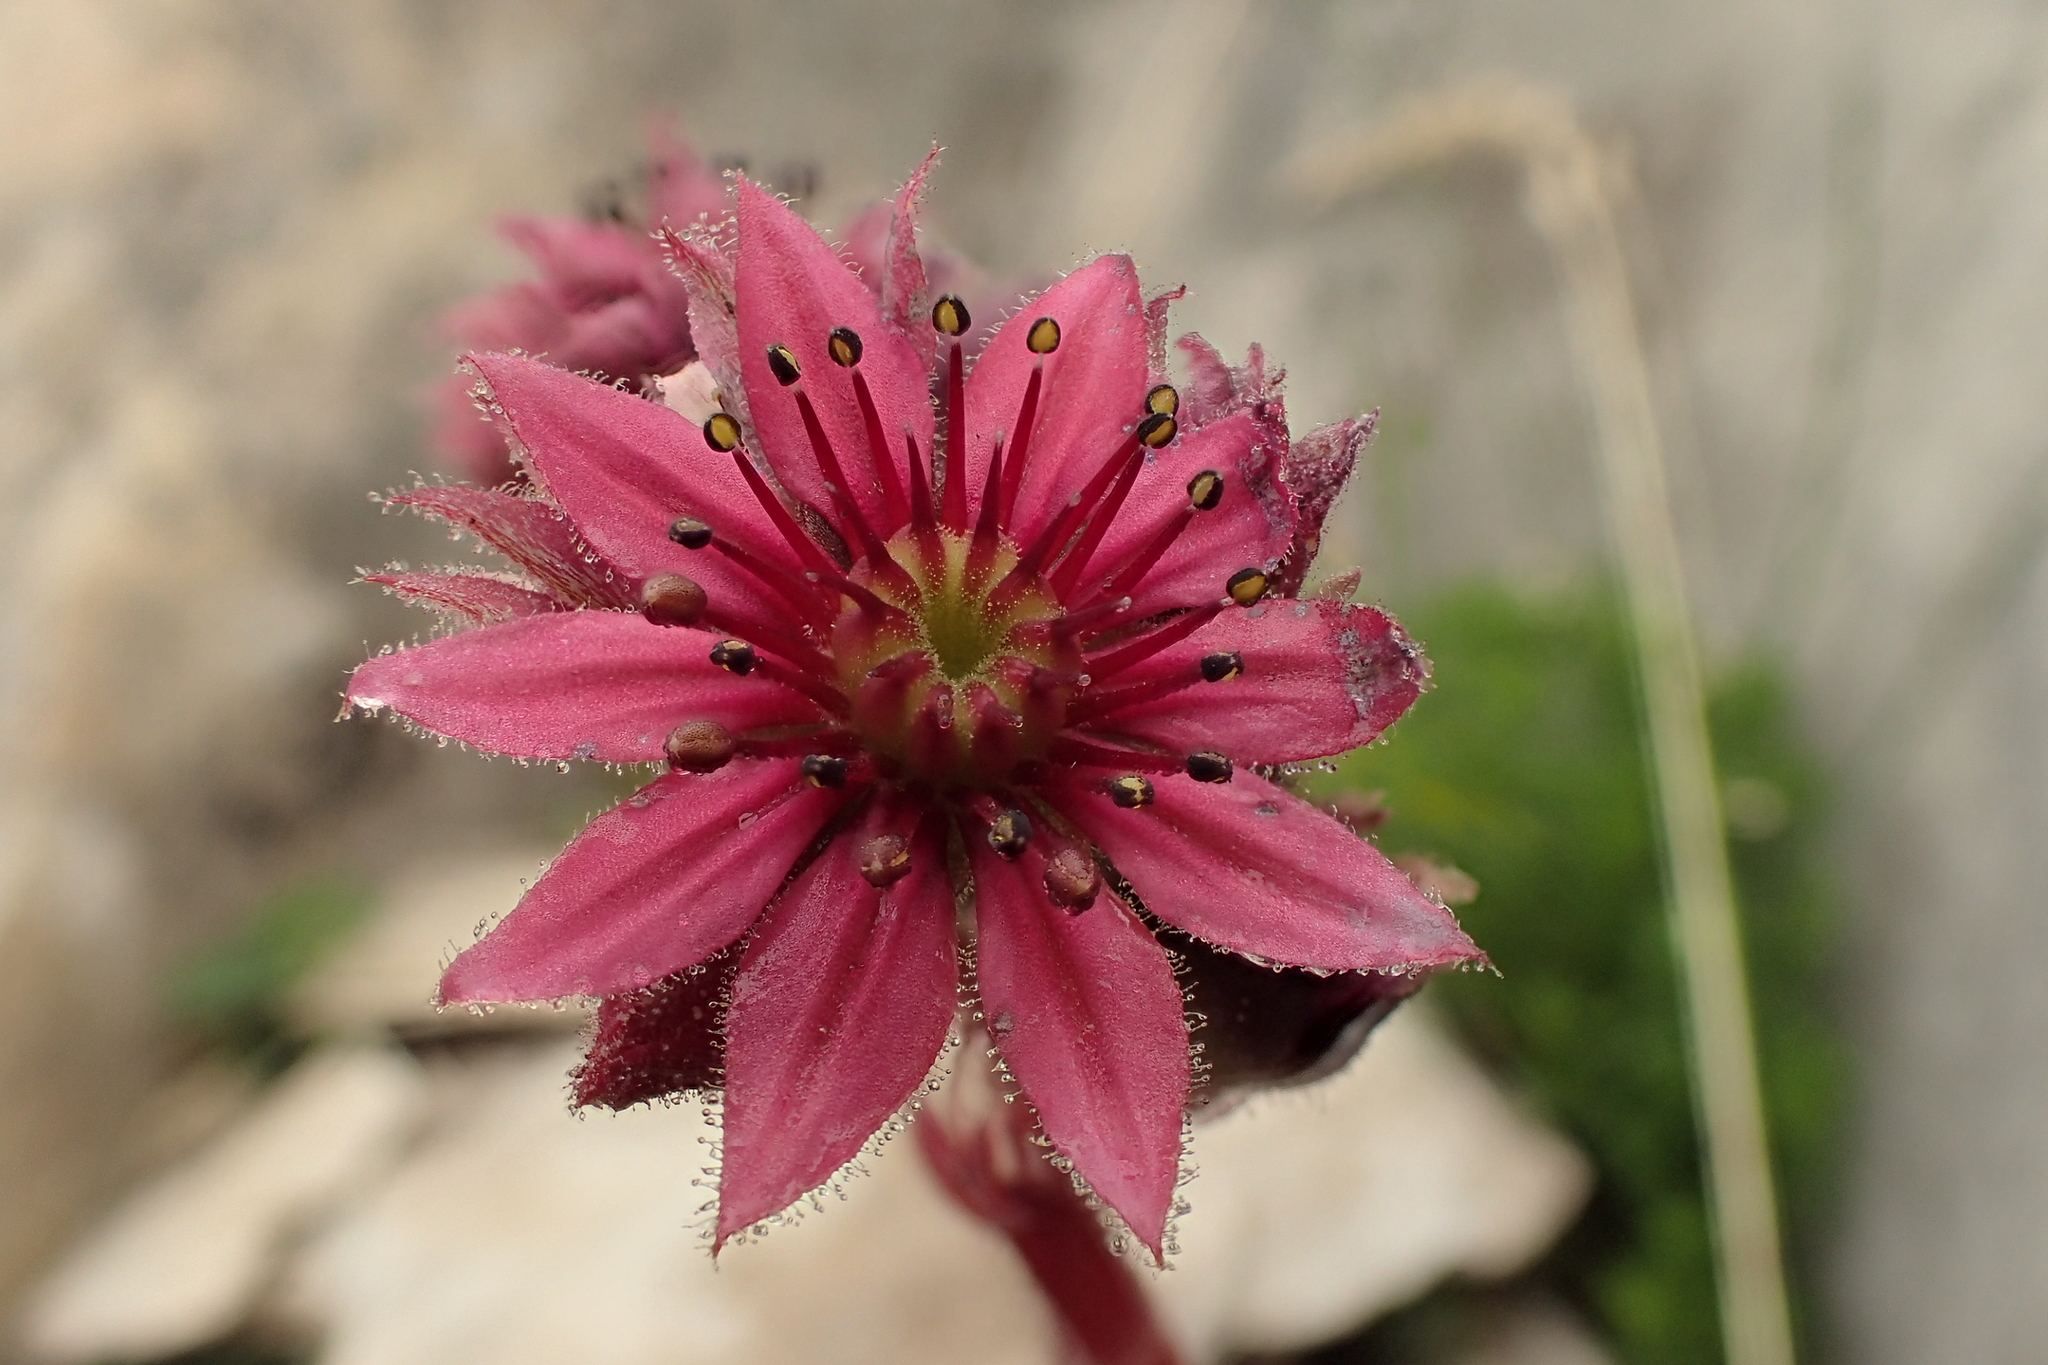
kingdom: Plantae
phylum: Tracheophyta
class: Magnoliopsida
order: Saxifragales
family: Crassulaceae
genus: Sempervivum
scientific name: Sempervivum arachnoideum
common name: Cobweb house-leek
